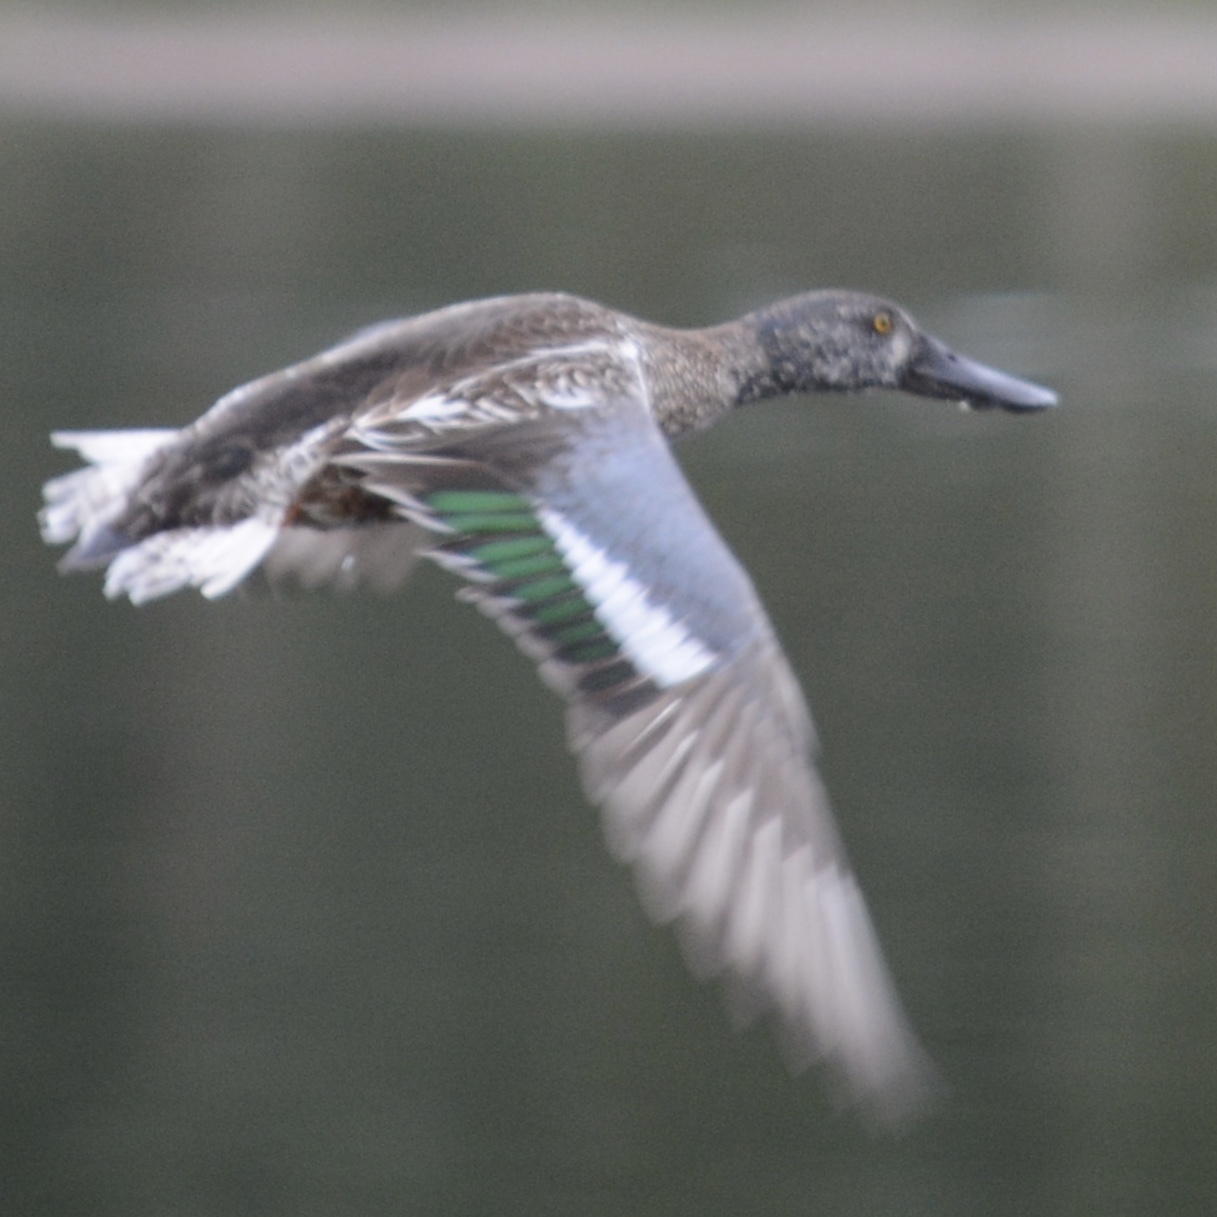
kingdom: Animalia
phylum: Chordata
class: Aves
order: Anseriformes
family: Anatidae
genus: Spatula
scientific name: Spatula clypeata
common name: Northern shoveler
